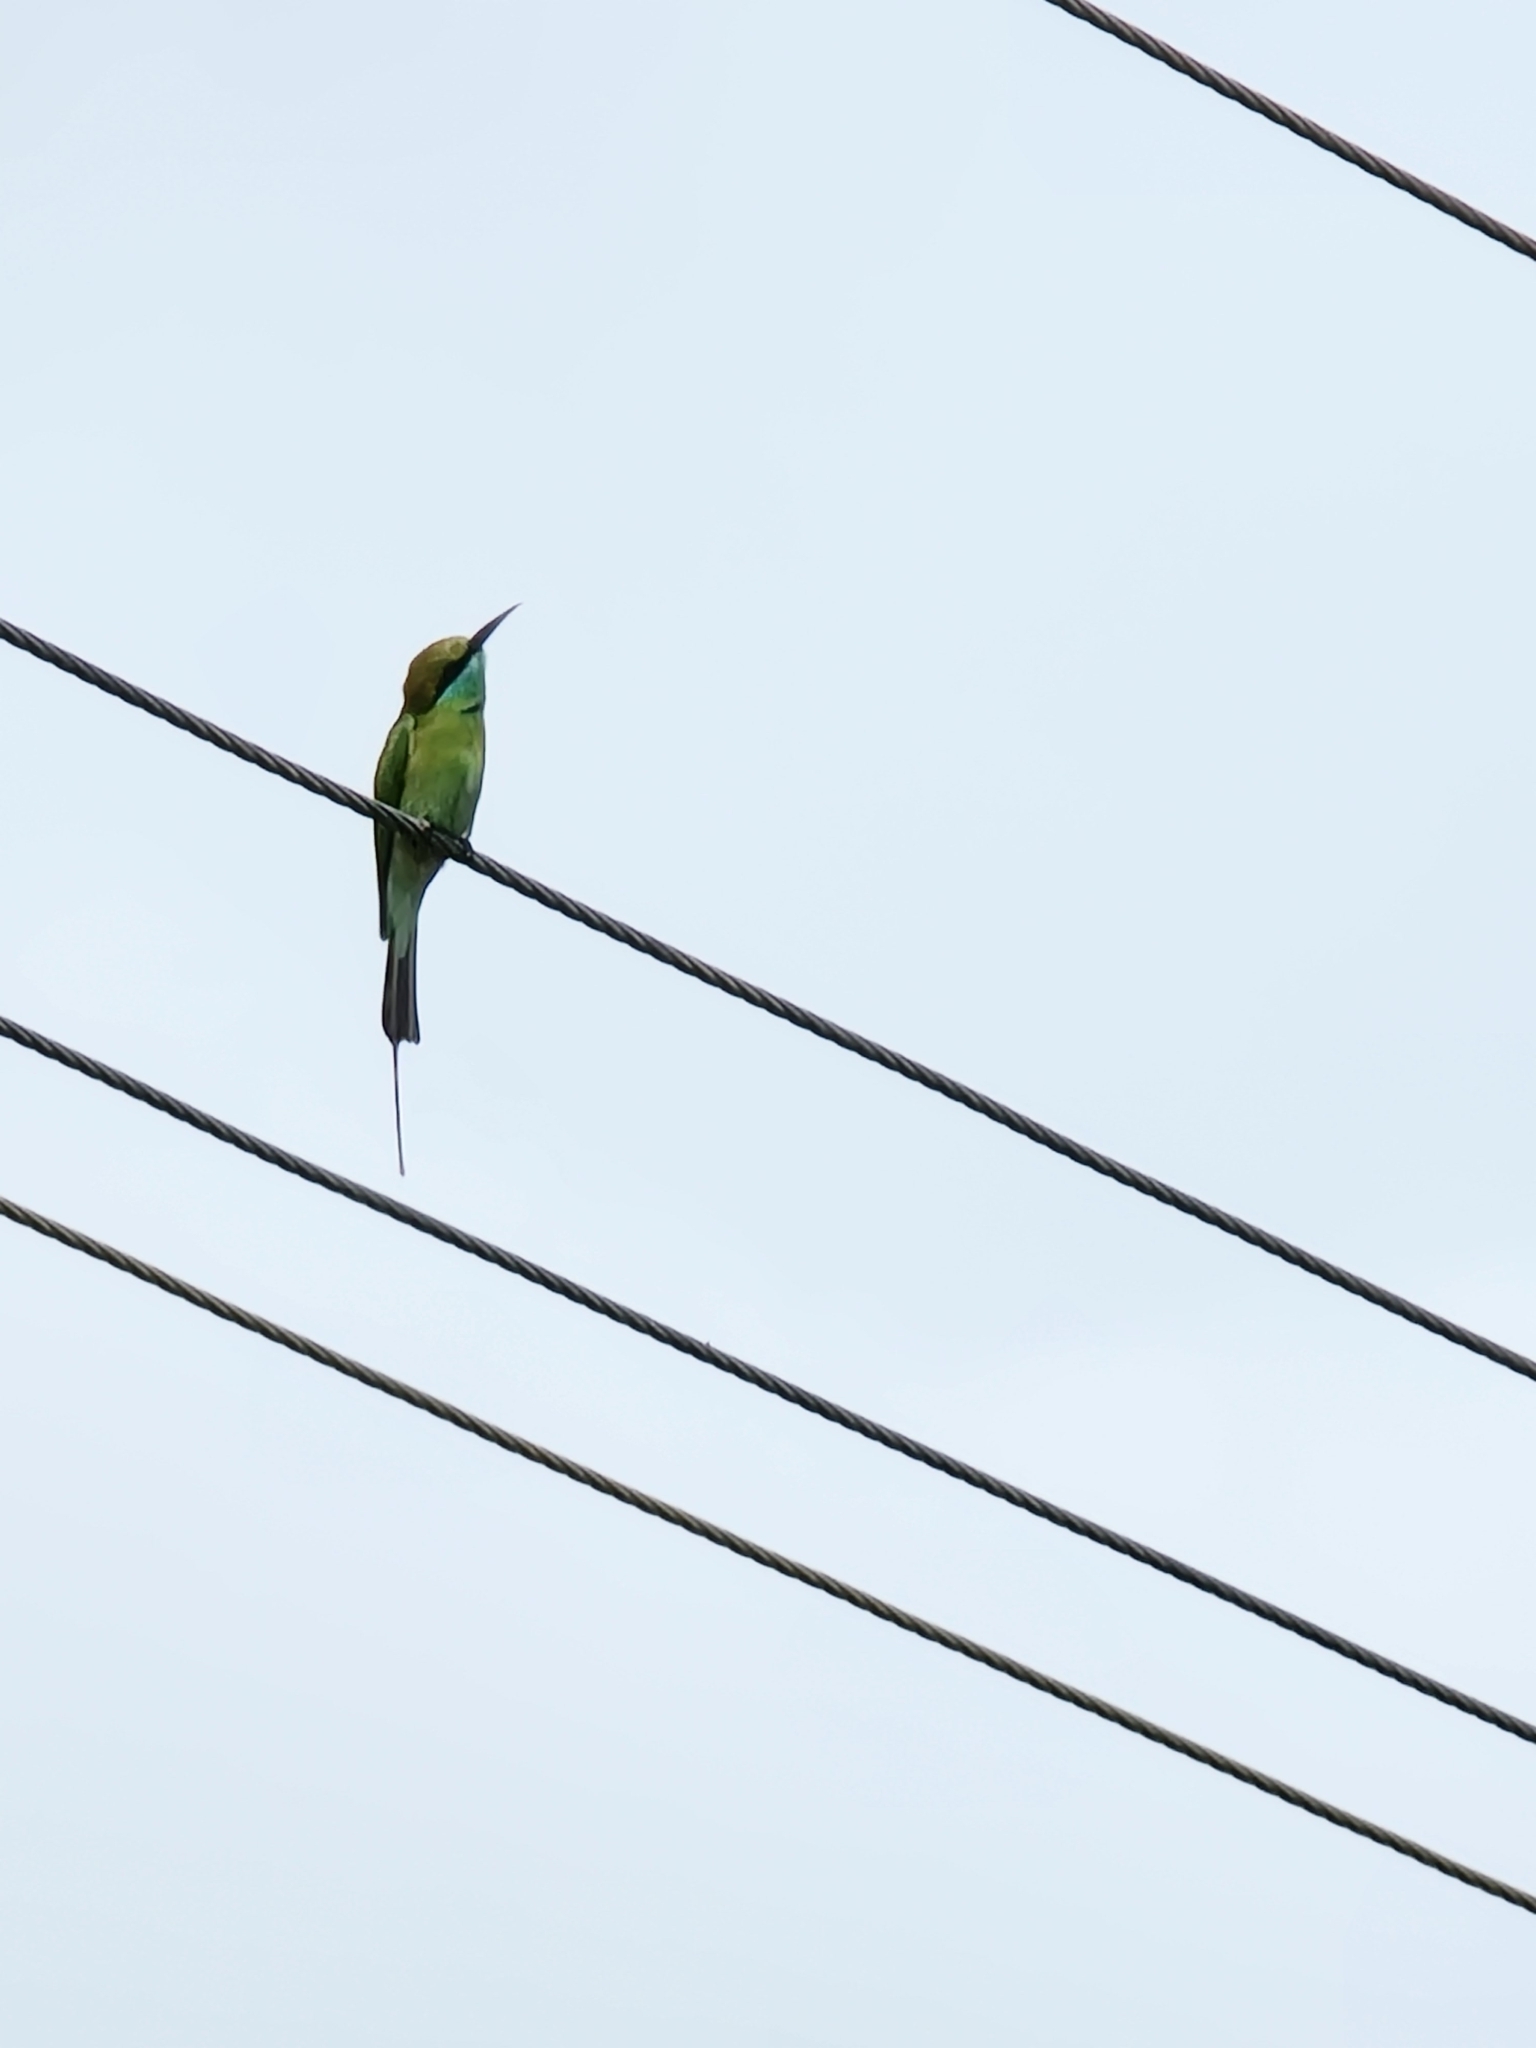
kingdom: Animalia
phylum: Chordata
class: Aves
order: Coraciiformes
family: Meropidae
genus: Merops
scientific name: Merops orientalis
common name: Green bee-eater
